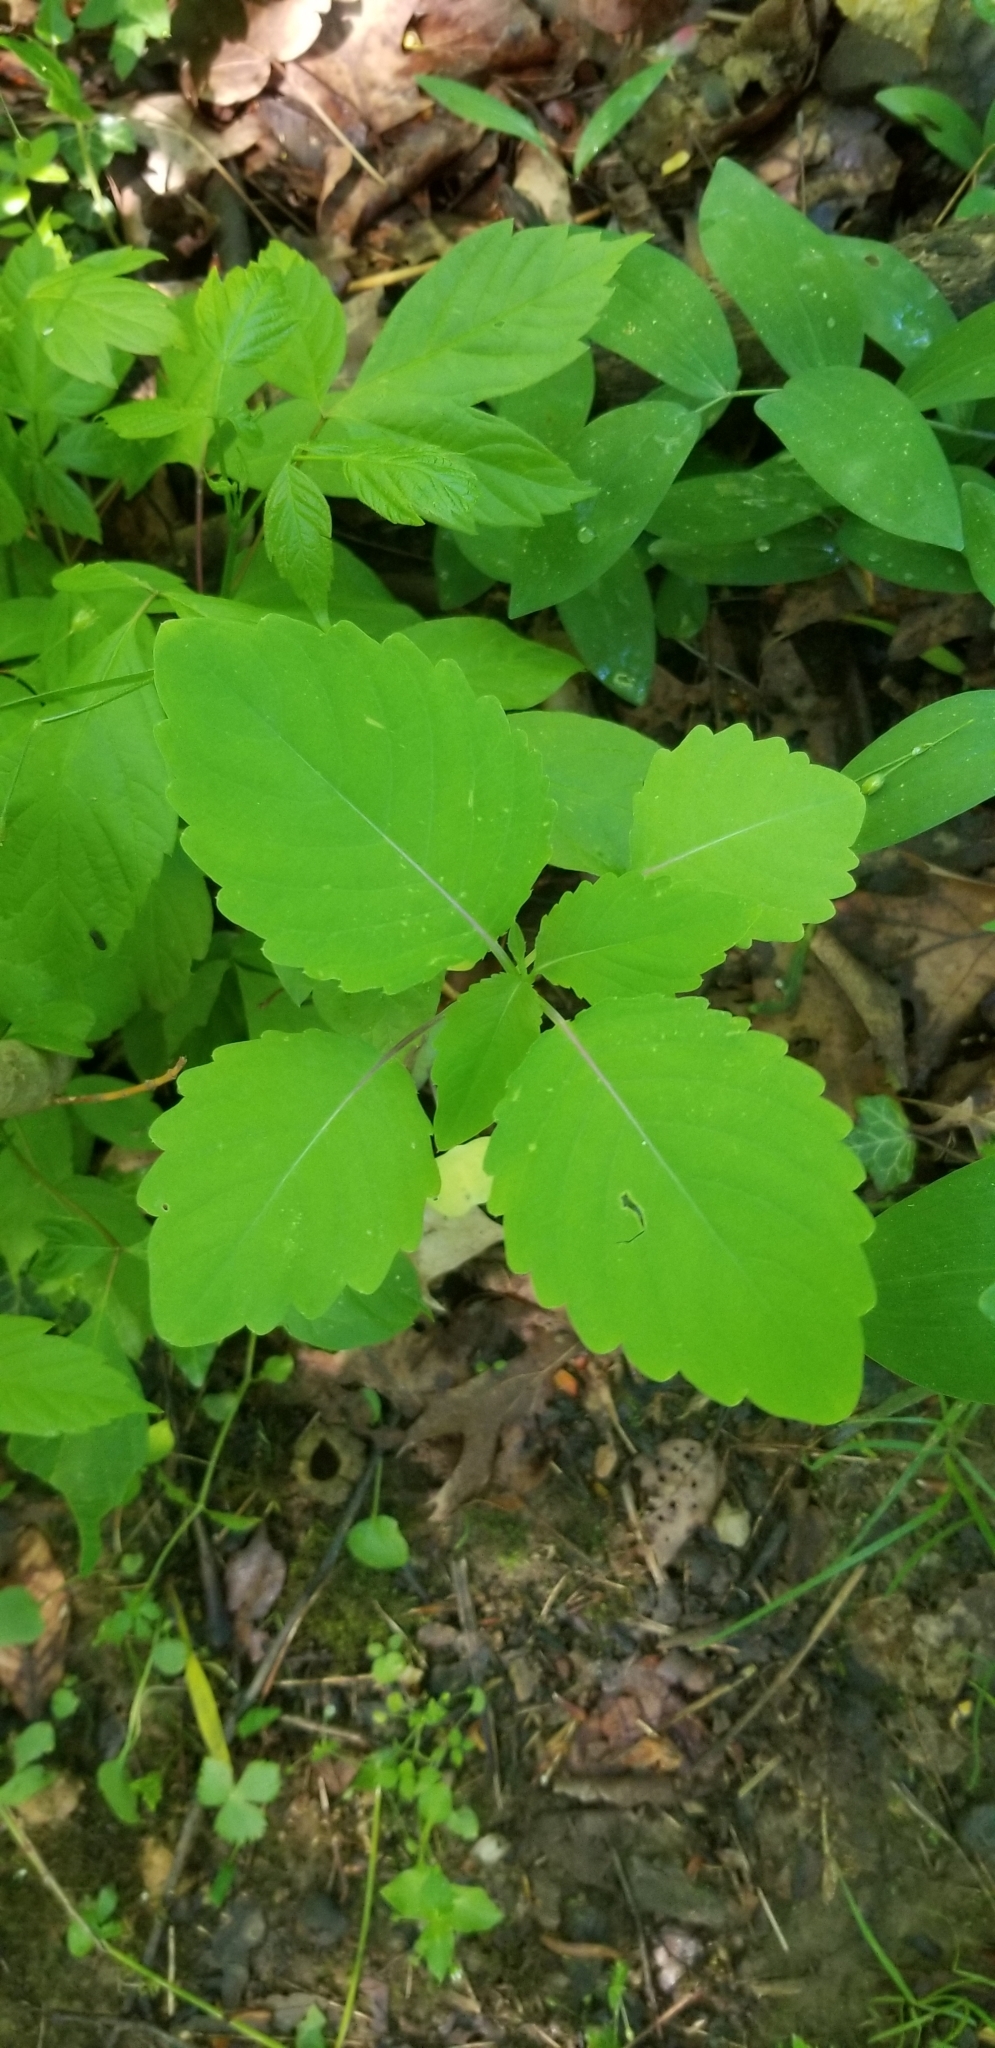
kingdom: Plantae
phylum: Tracheophyta
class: Magnoliopsida
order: Ericales
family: Balsaminaceae
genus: Impatiens
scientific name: Impatiens capensis
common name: Orange balsam
